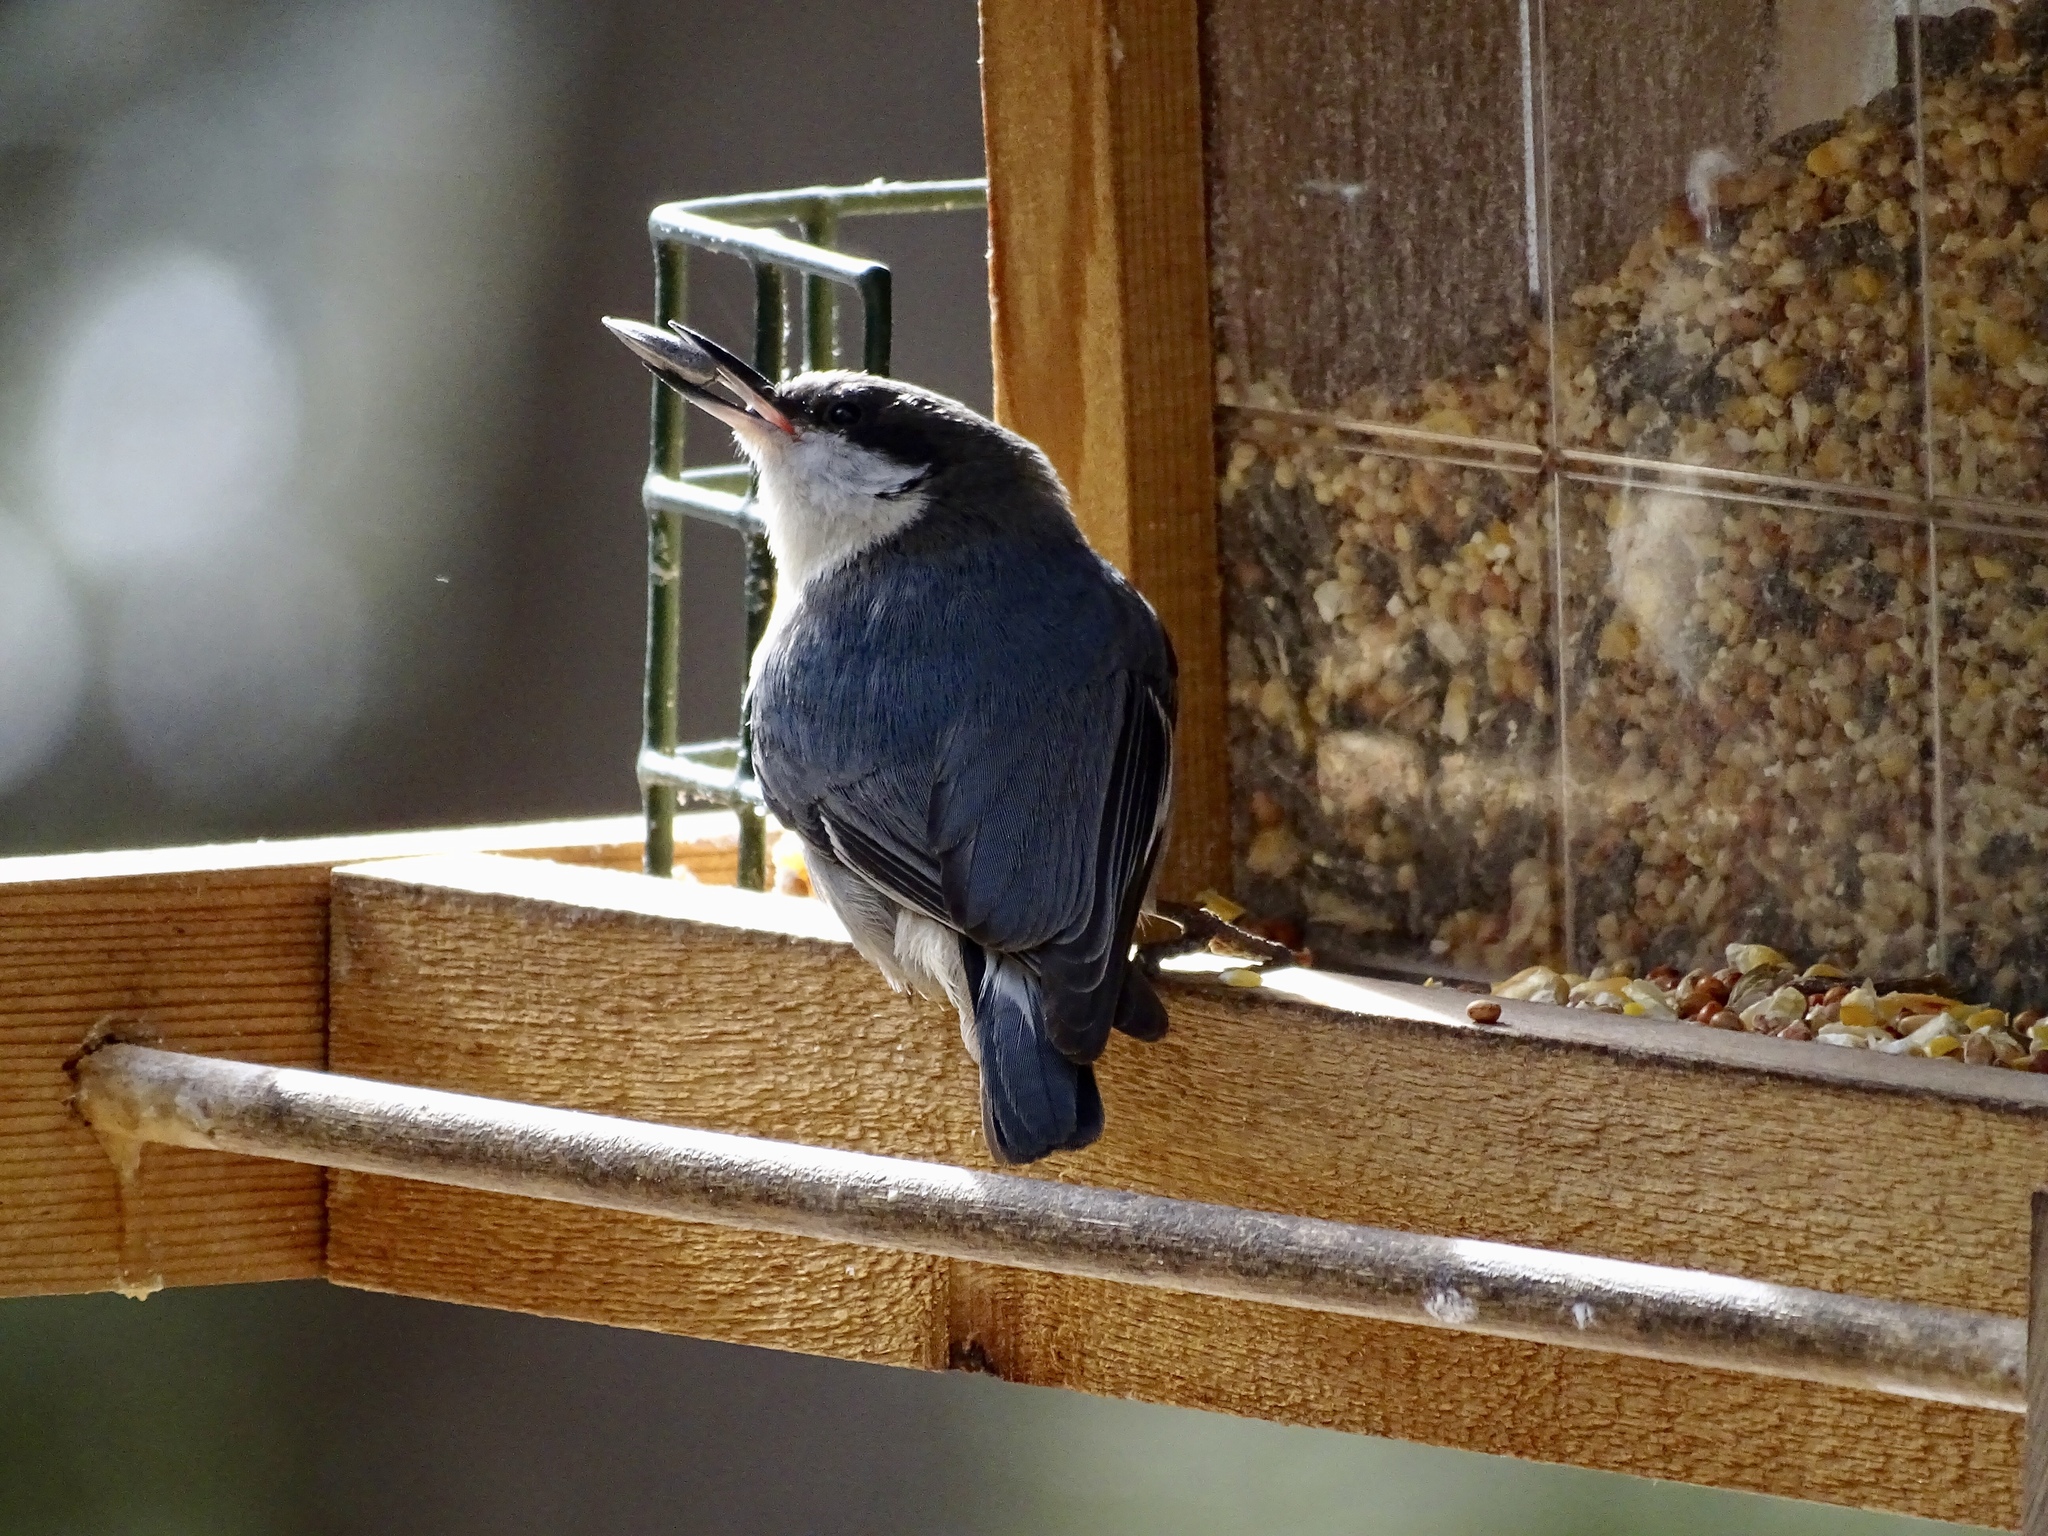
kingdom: Animalia
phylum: Chordata
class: Aves
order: Passeriformes
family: Sittidae
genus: Sitta
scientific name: Sitta pygmaea
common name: Pygmy nuthatch
